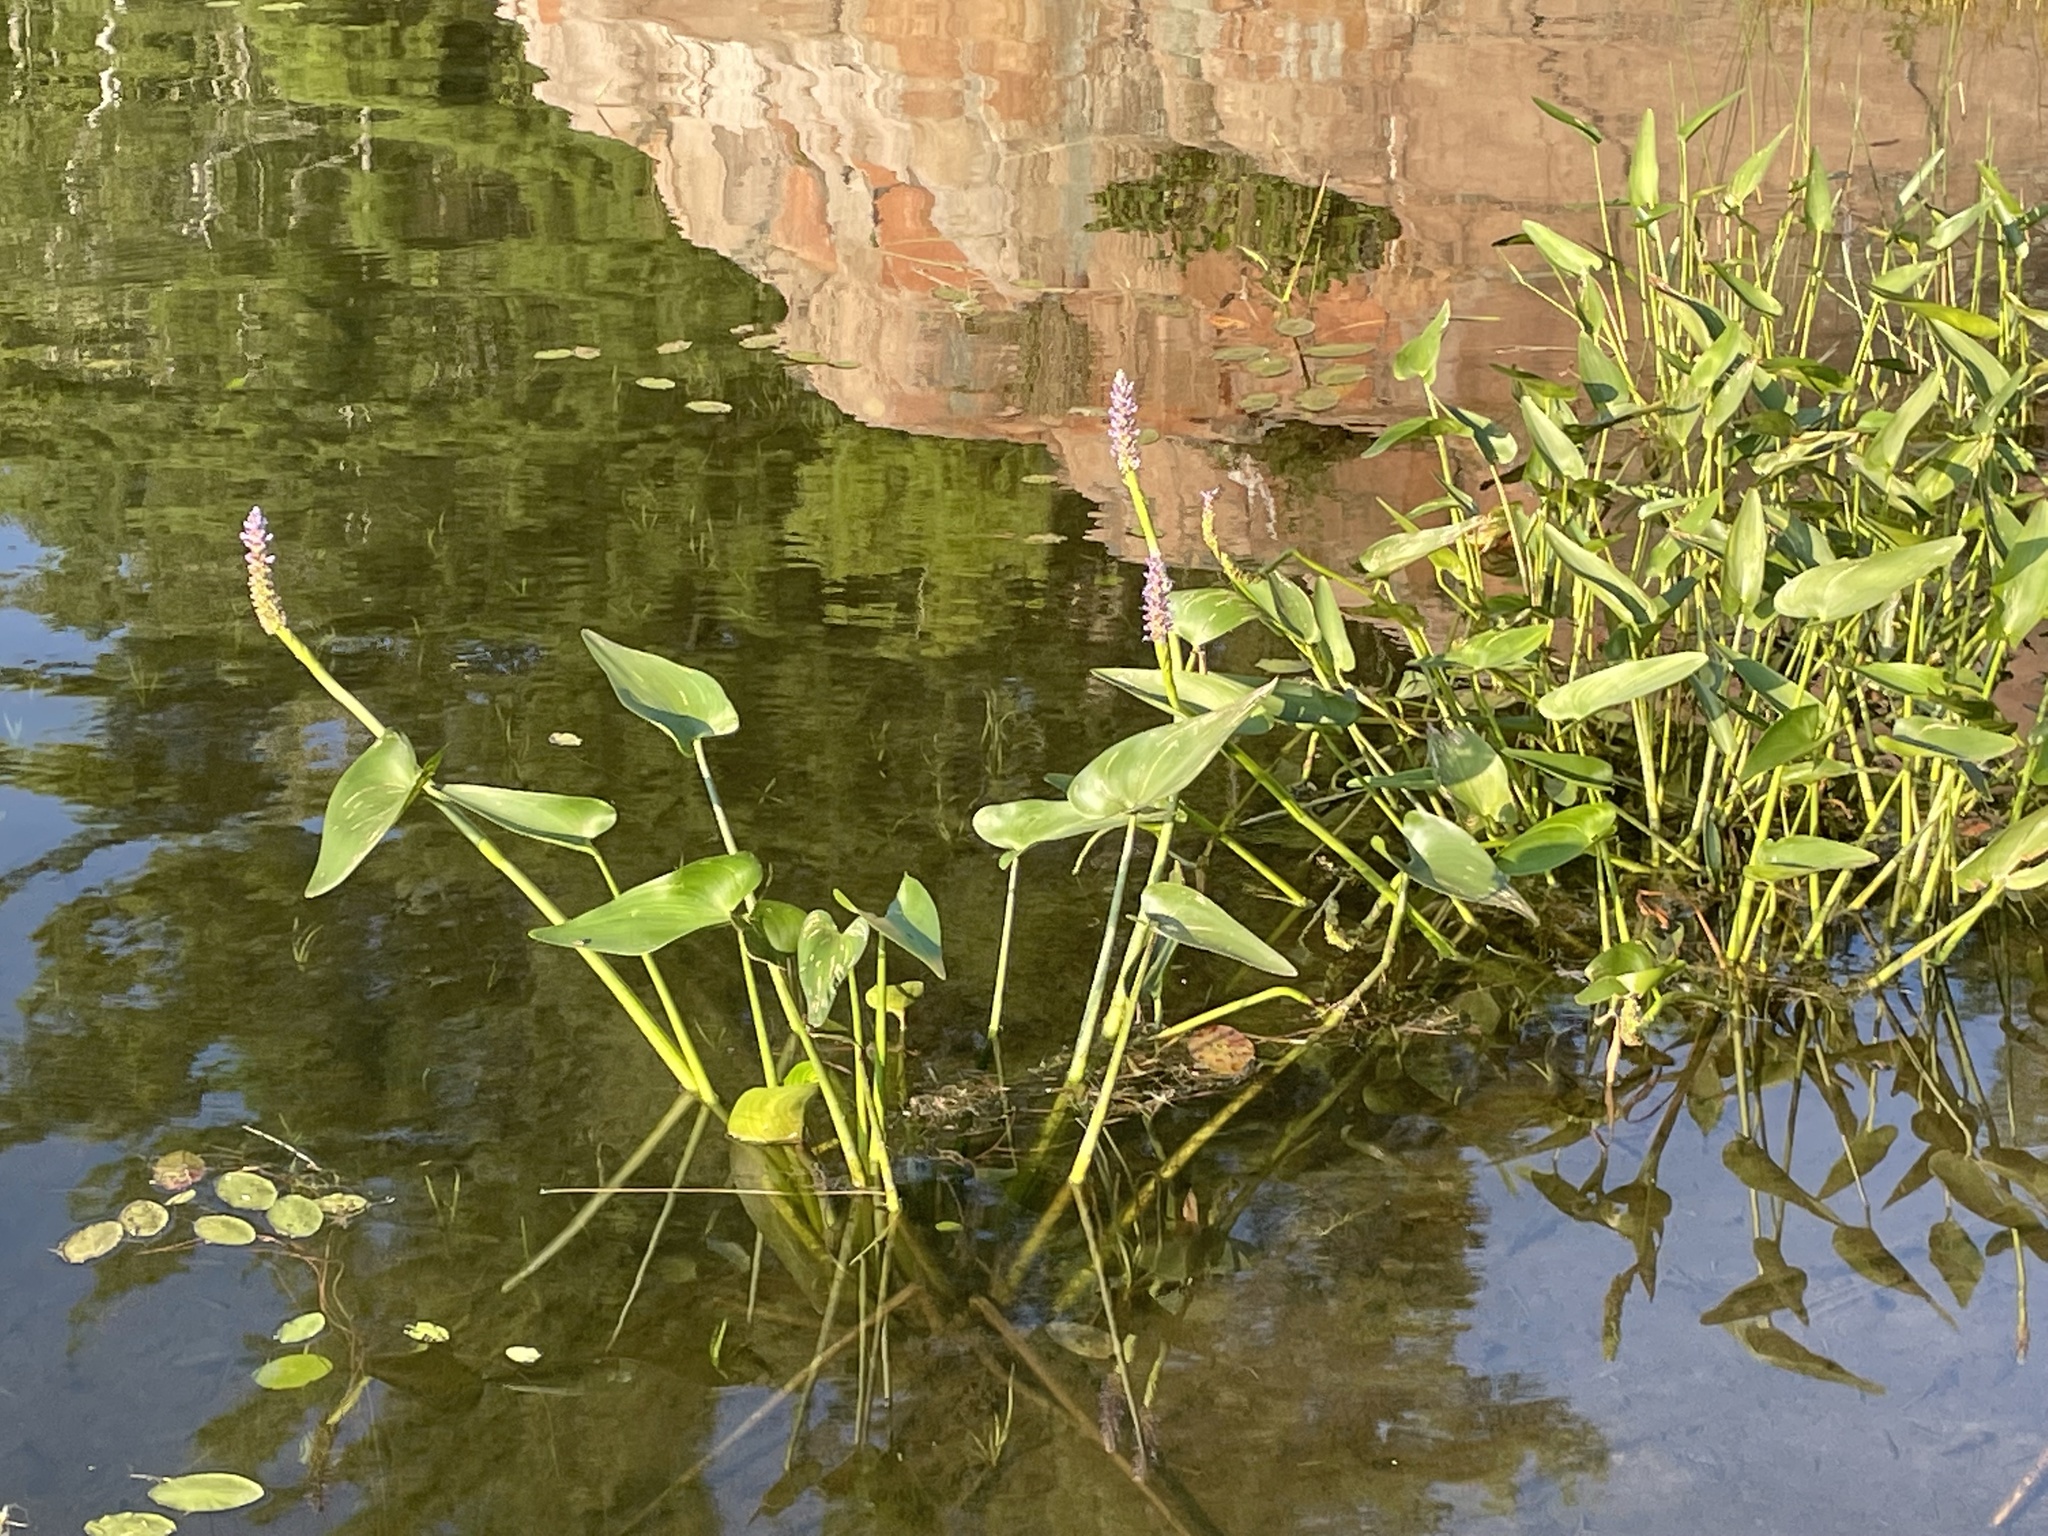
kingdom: Plantae
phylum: Tracheophyta
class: Liliopsida
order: Commelinales
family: Pontederiaceae
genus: Pontederia
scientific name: Pontederia cordata
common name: Pickerelweed
